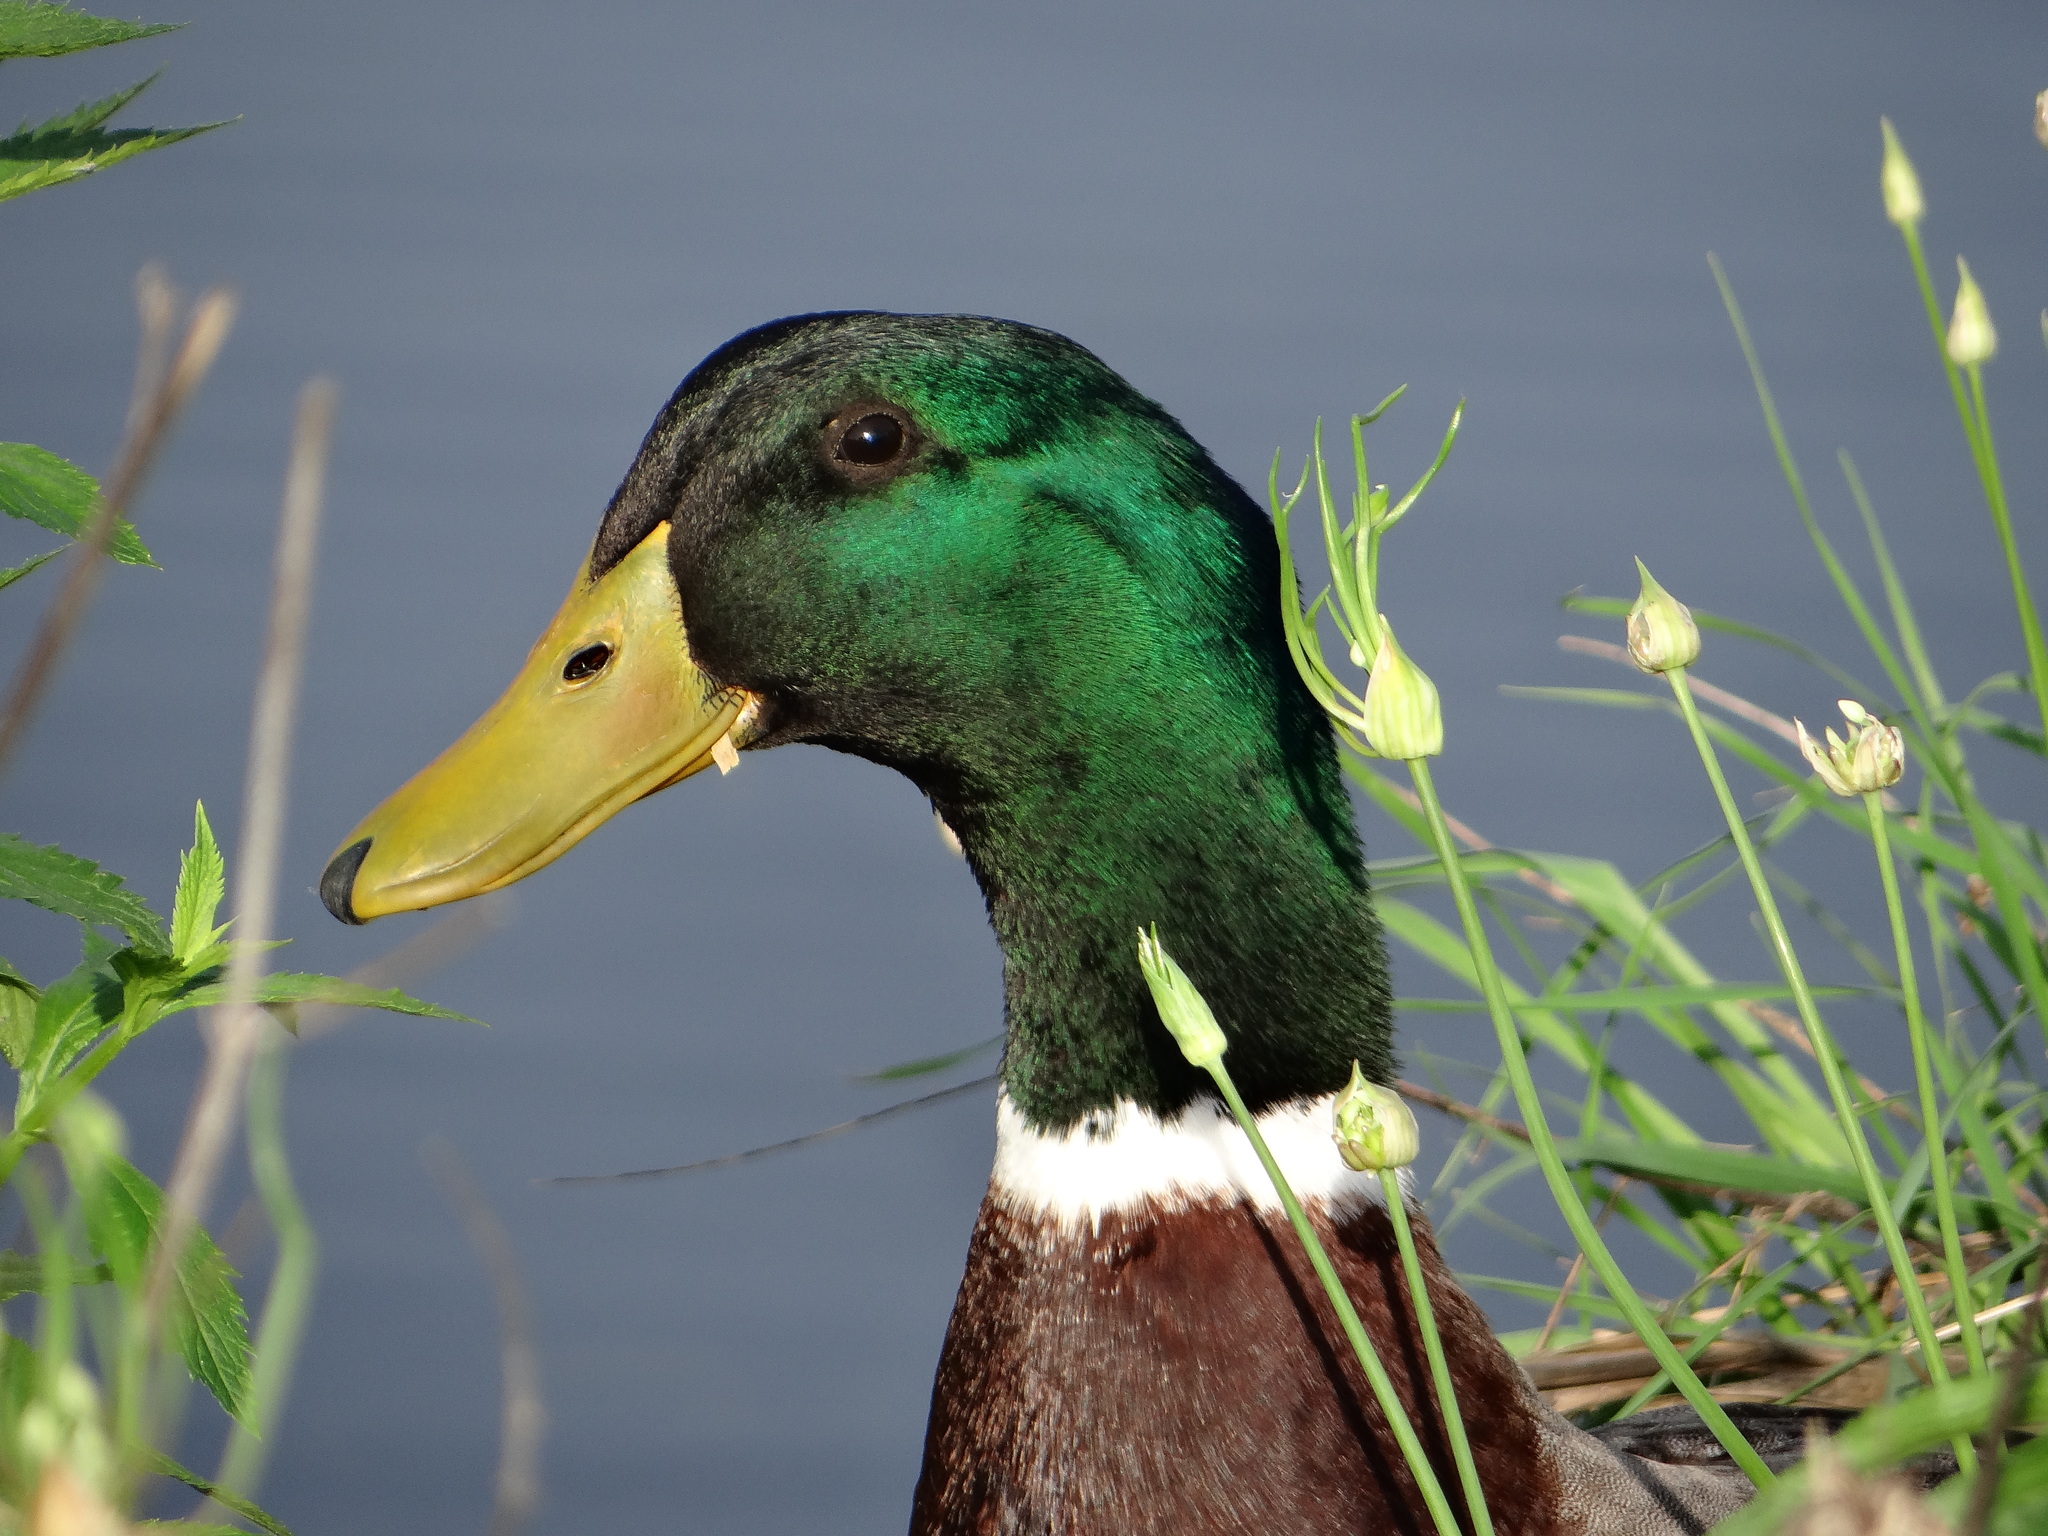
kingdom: Animalia
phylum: Chordata
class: Aves
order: Anseriformes
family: Anatidae
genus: Anas
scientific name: Anas platyrhynchos
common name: Mallard
